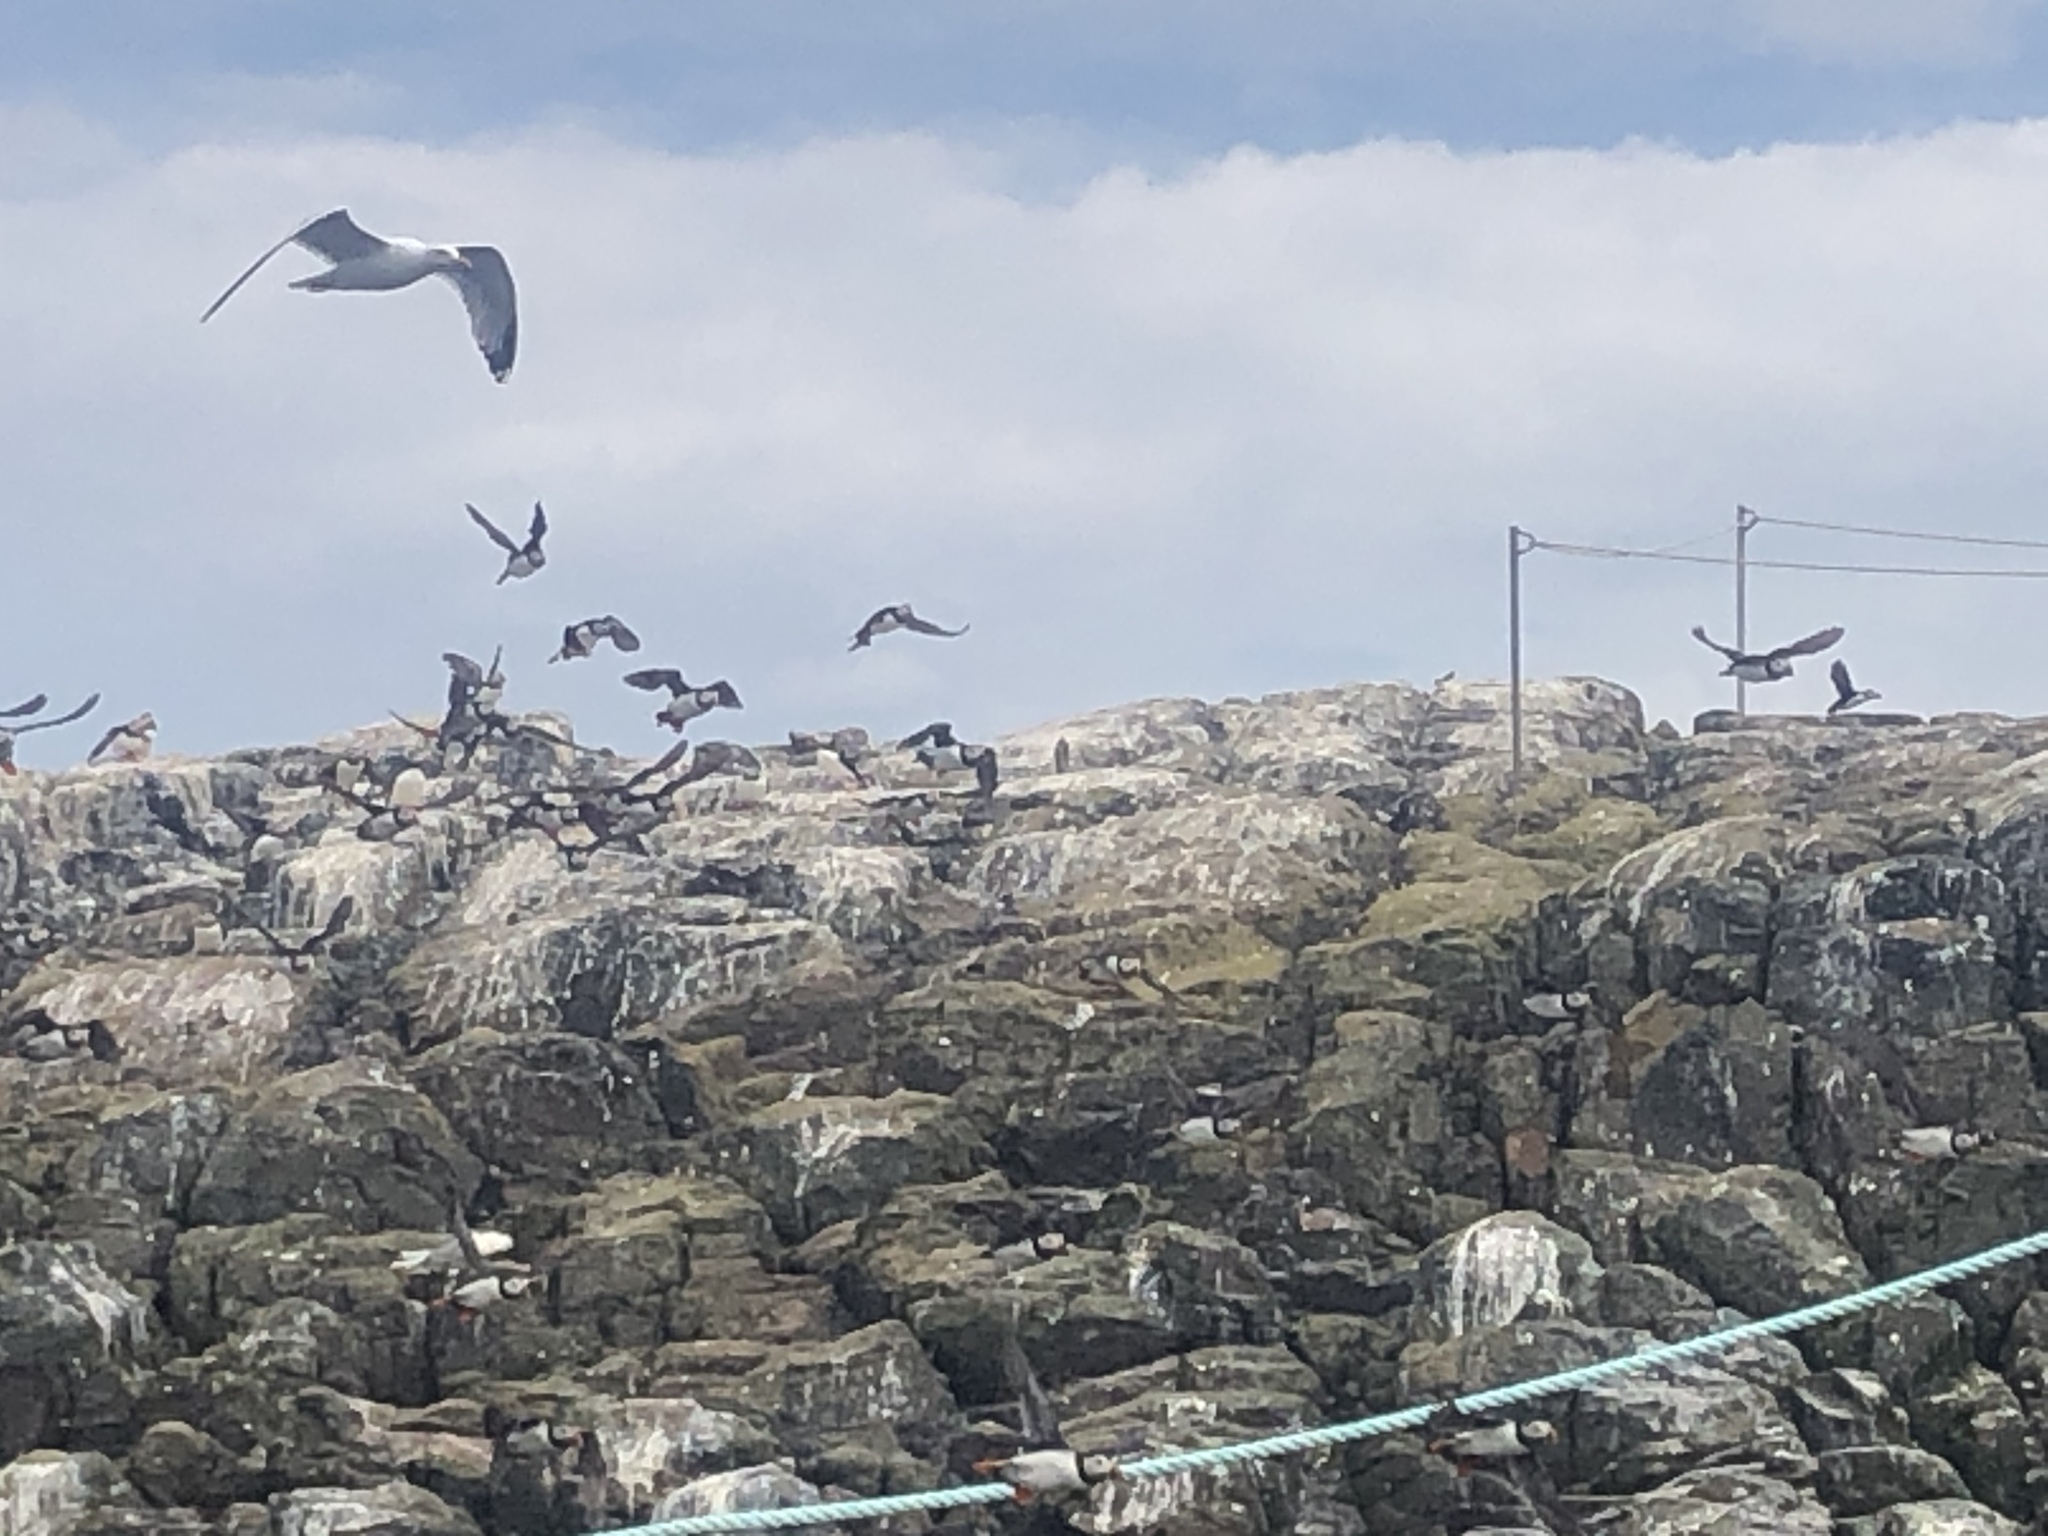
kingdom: Animalia
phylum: Chordata
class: Aves
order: Charadriiformes
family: Alcidae
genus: Fratercula
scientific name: Fratercula arctica
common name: Atlantic puffin
